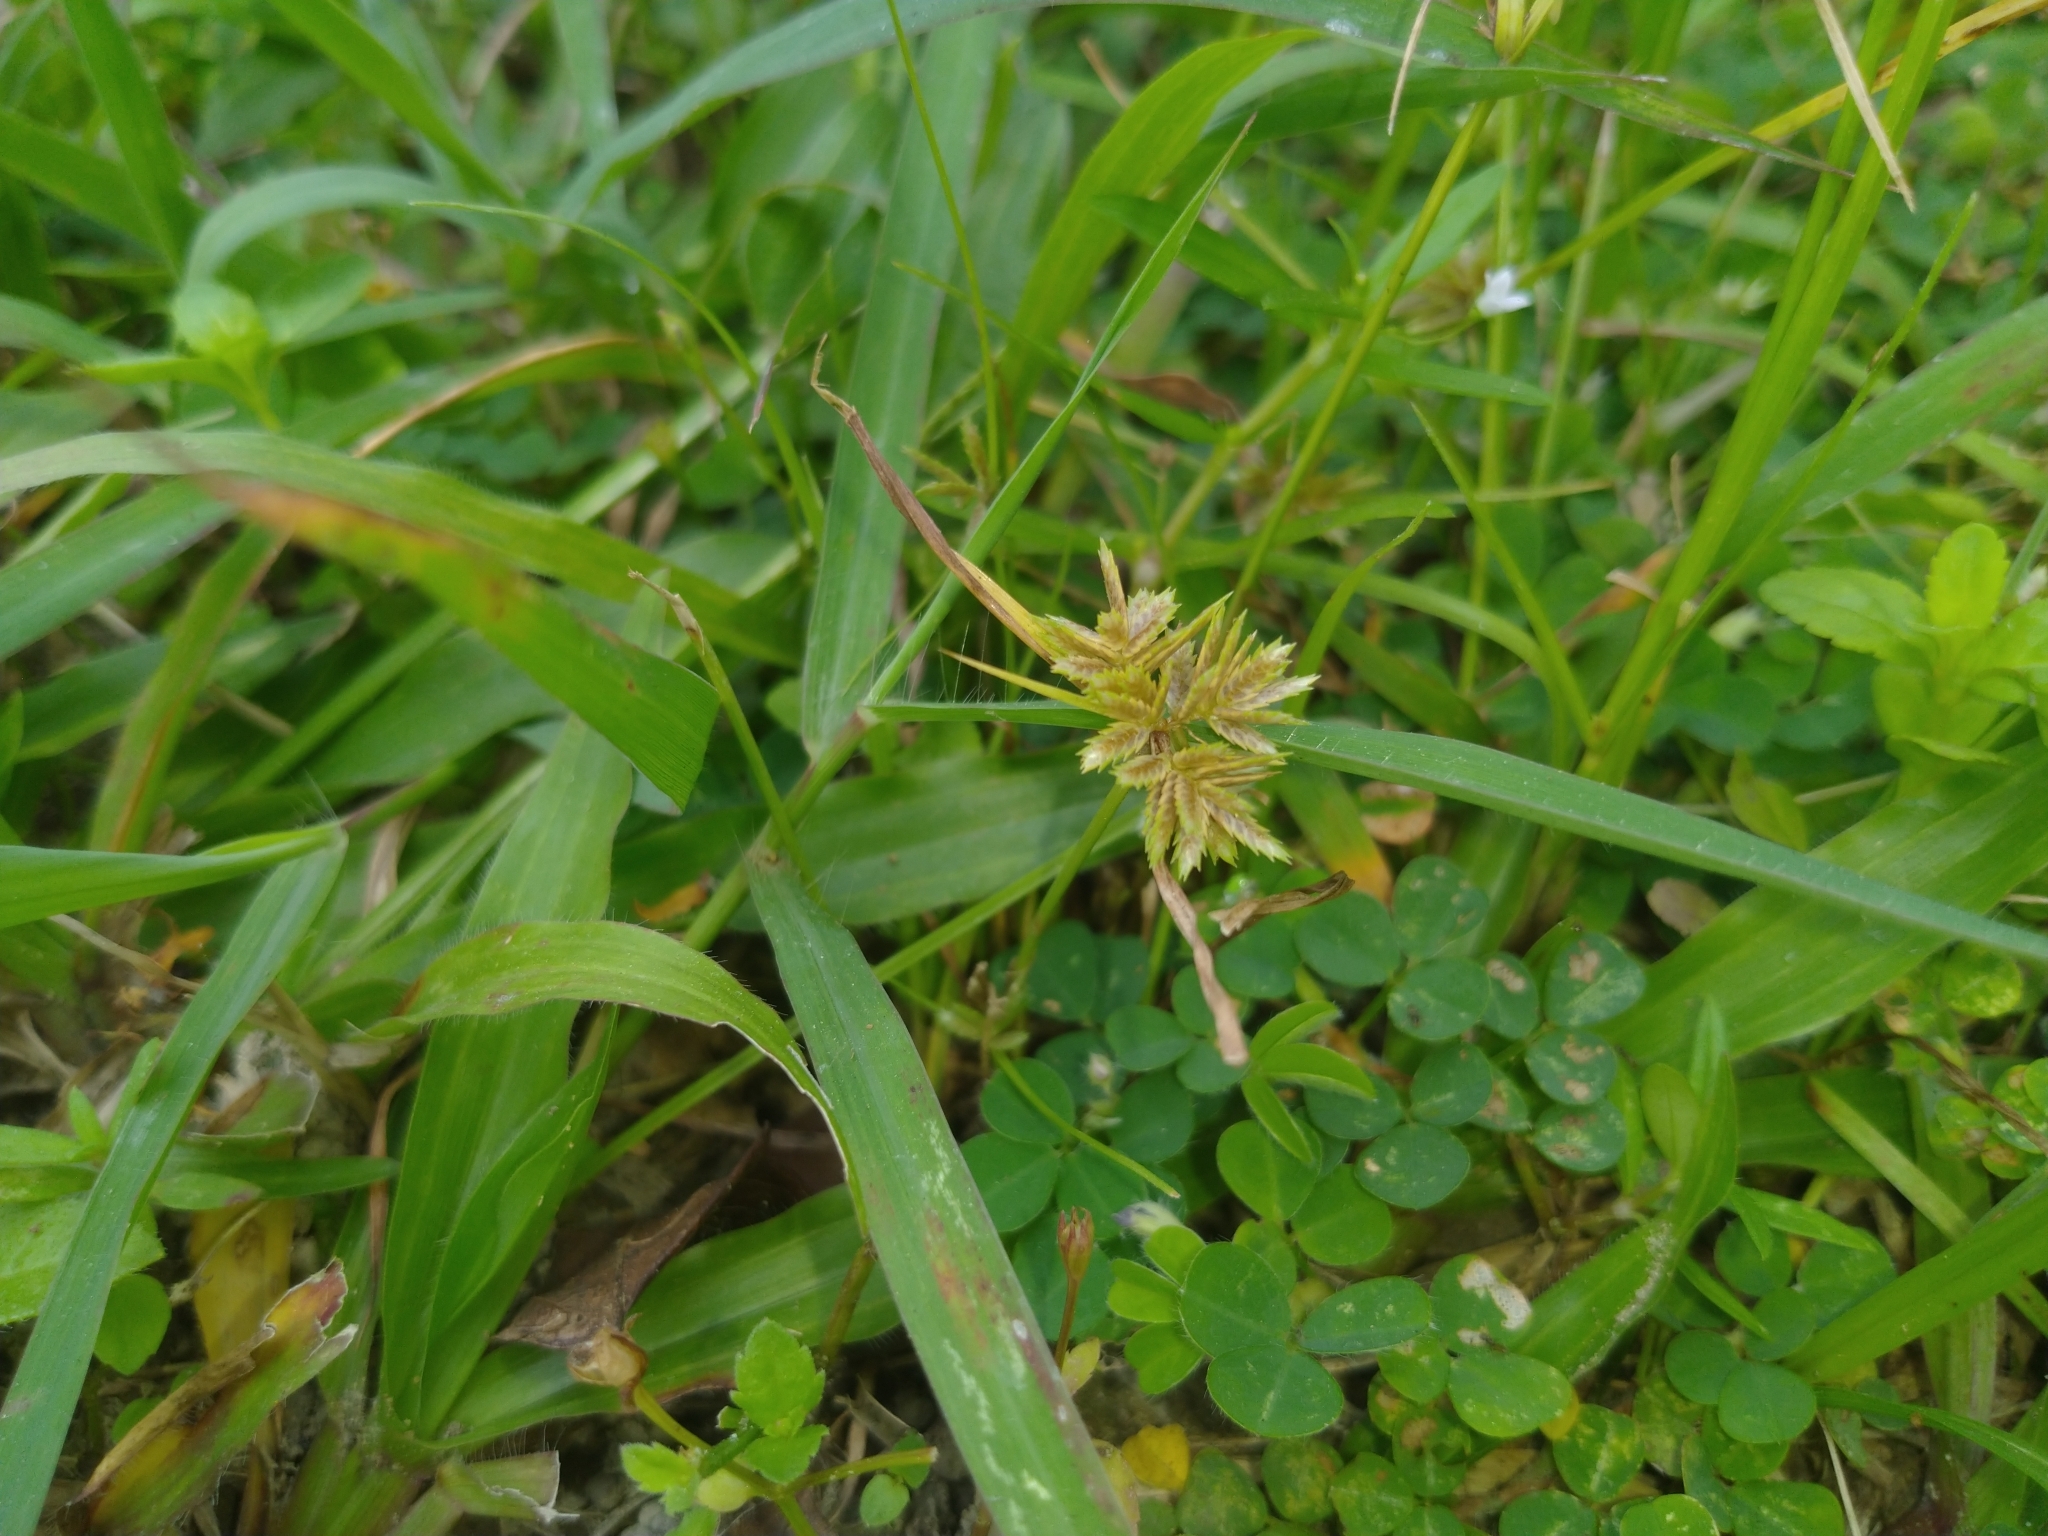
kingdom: Plantae
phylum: Tracheophyta
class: Liliopsida
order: Poales
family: Cyperaceae
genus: Cyperus
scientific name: Cyperus pumilus
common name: Low flatsedge
